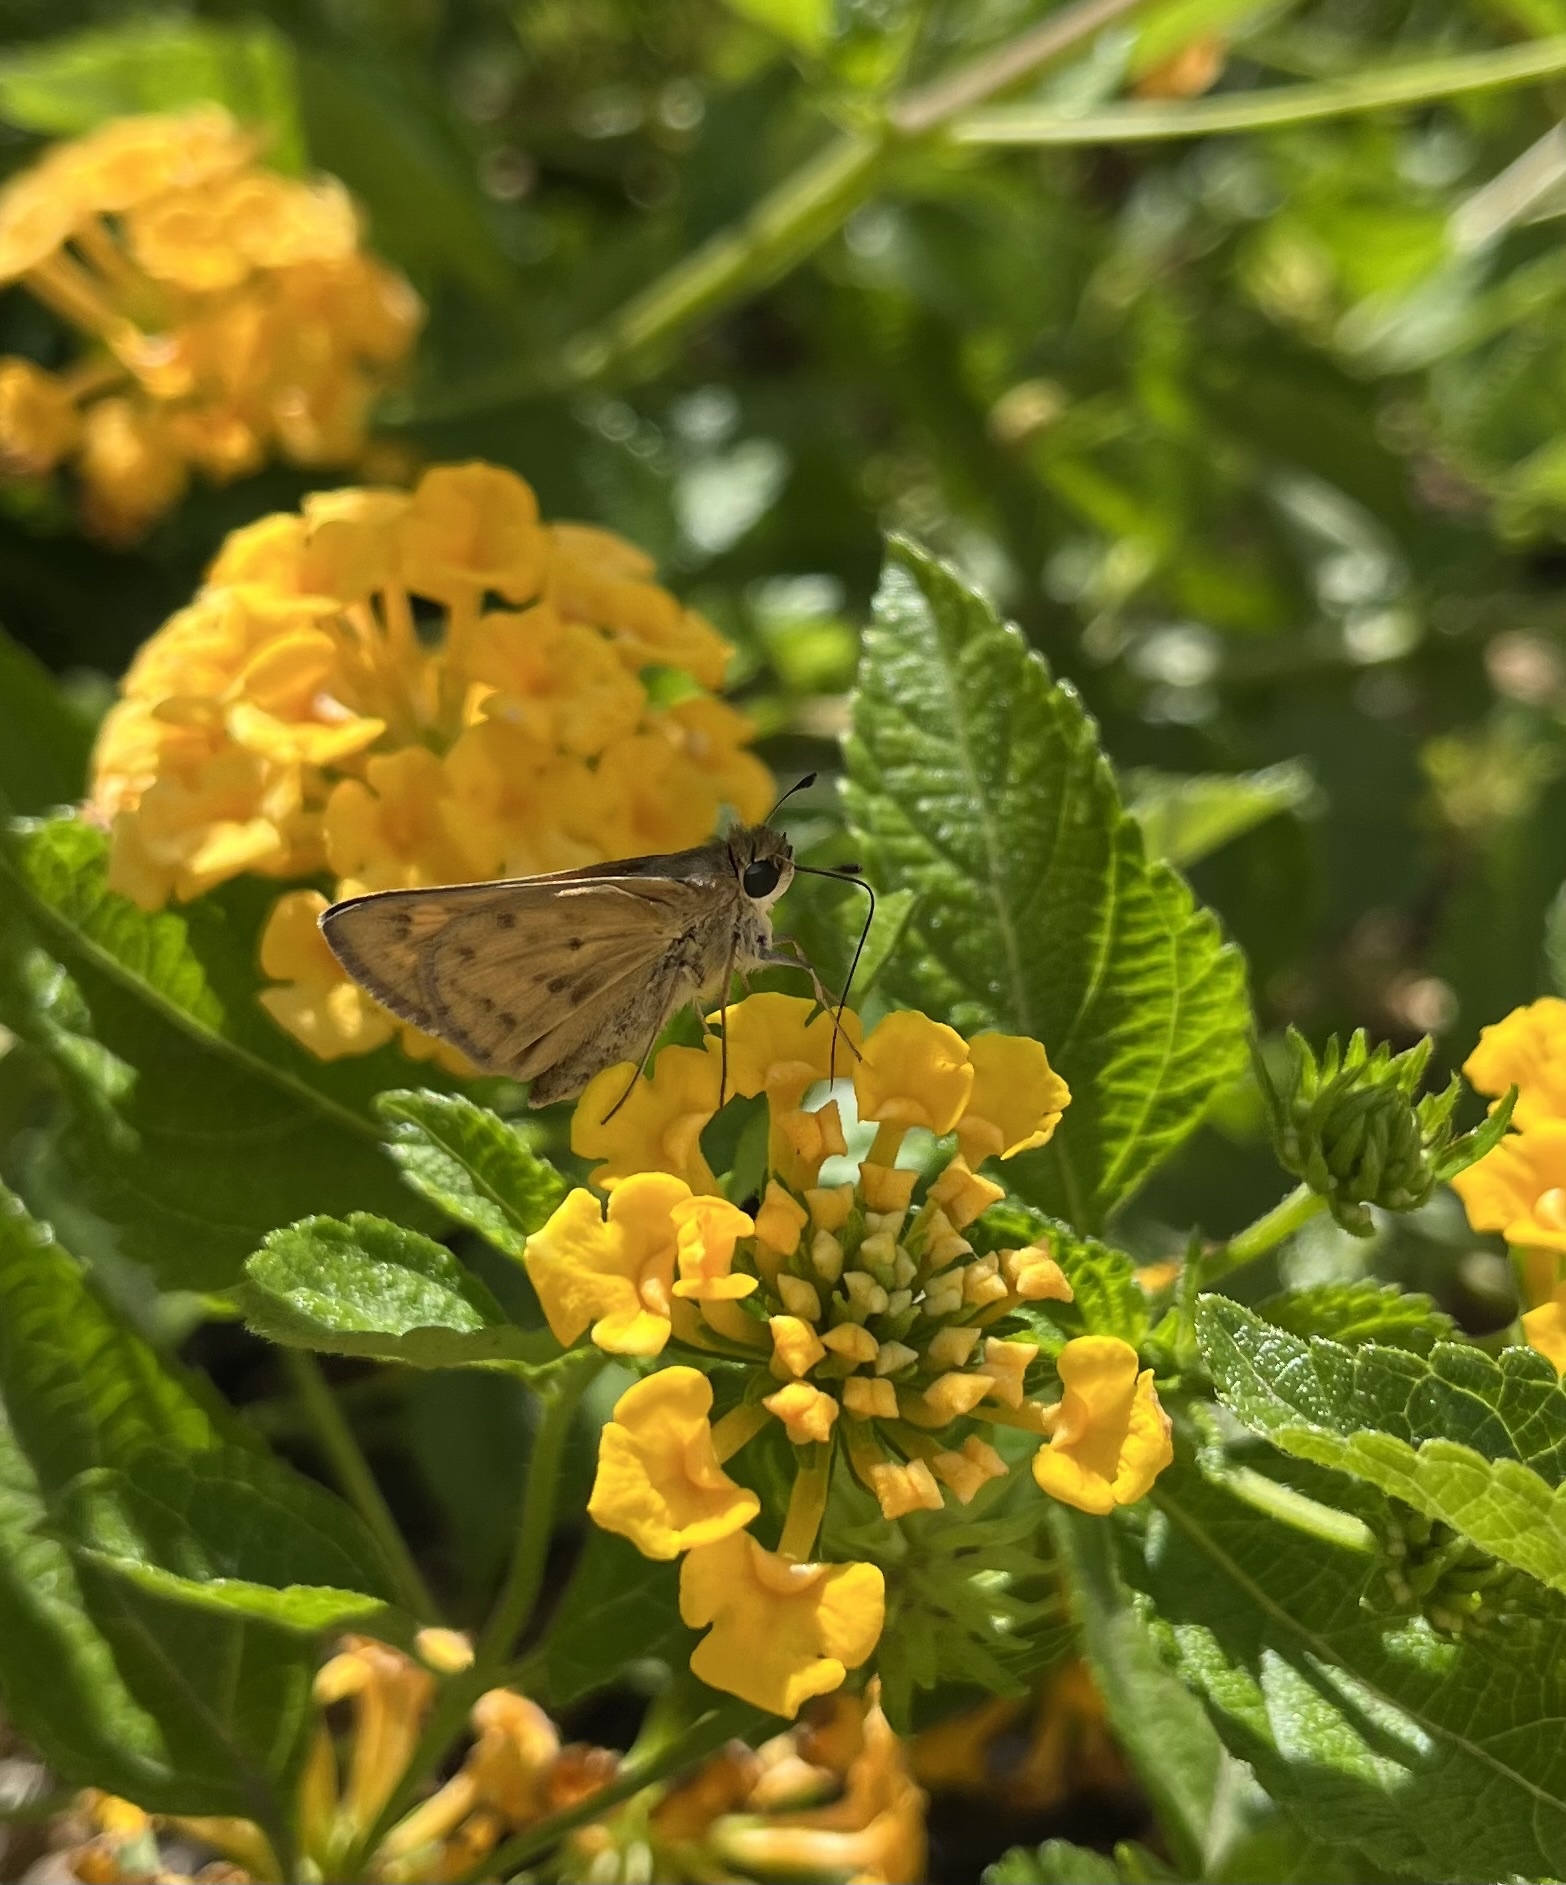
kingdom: Animalia
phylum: Arthropoda
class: Insecta
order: Lepidoptera
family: Hesperiidae
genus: Hylephila
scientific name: Hylephila phyleus
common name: Fiery skipper
